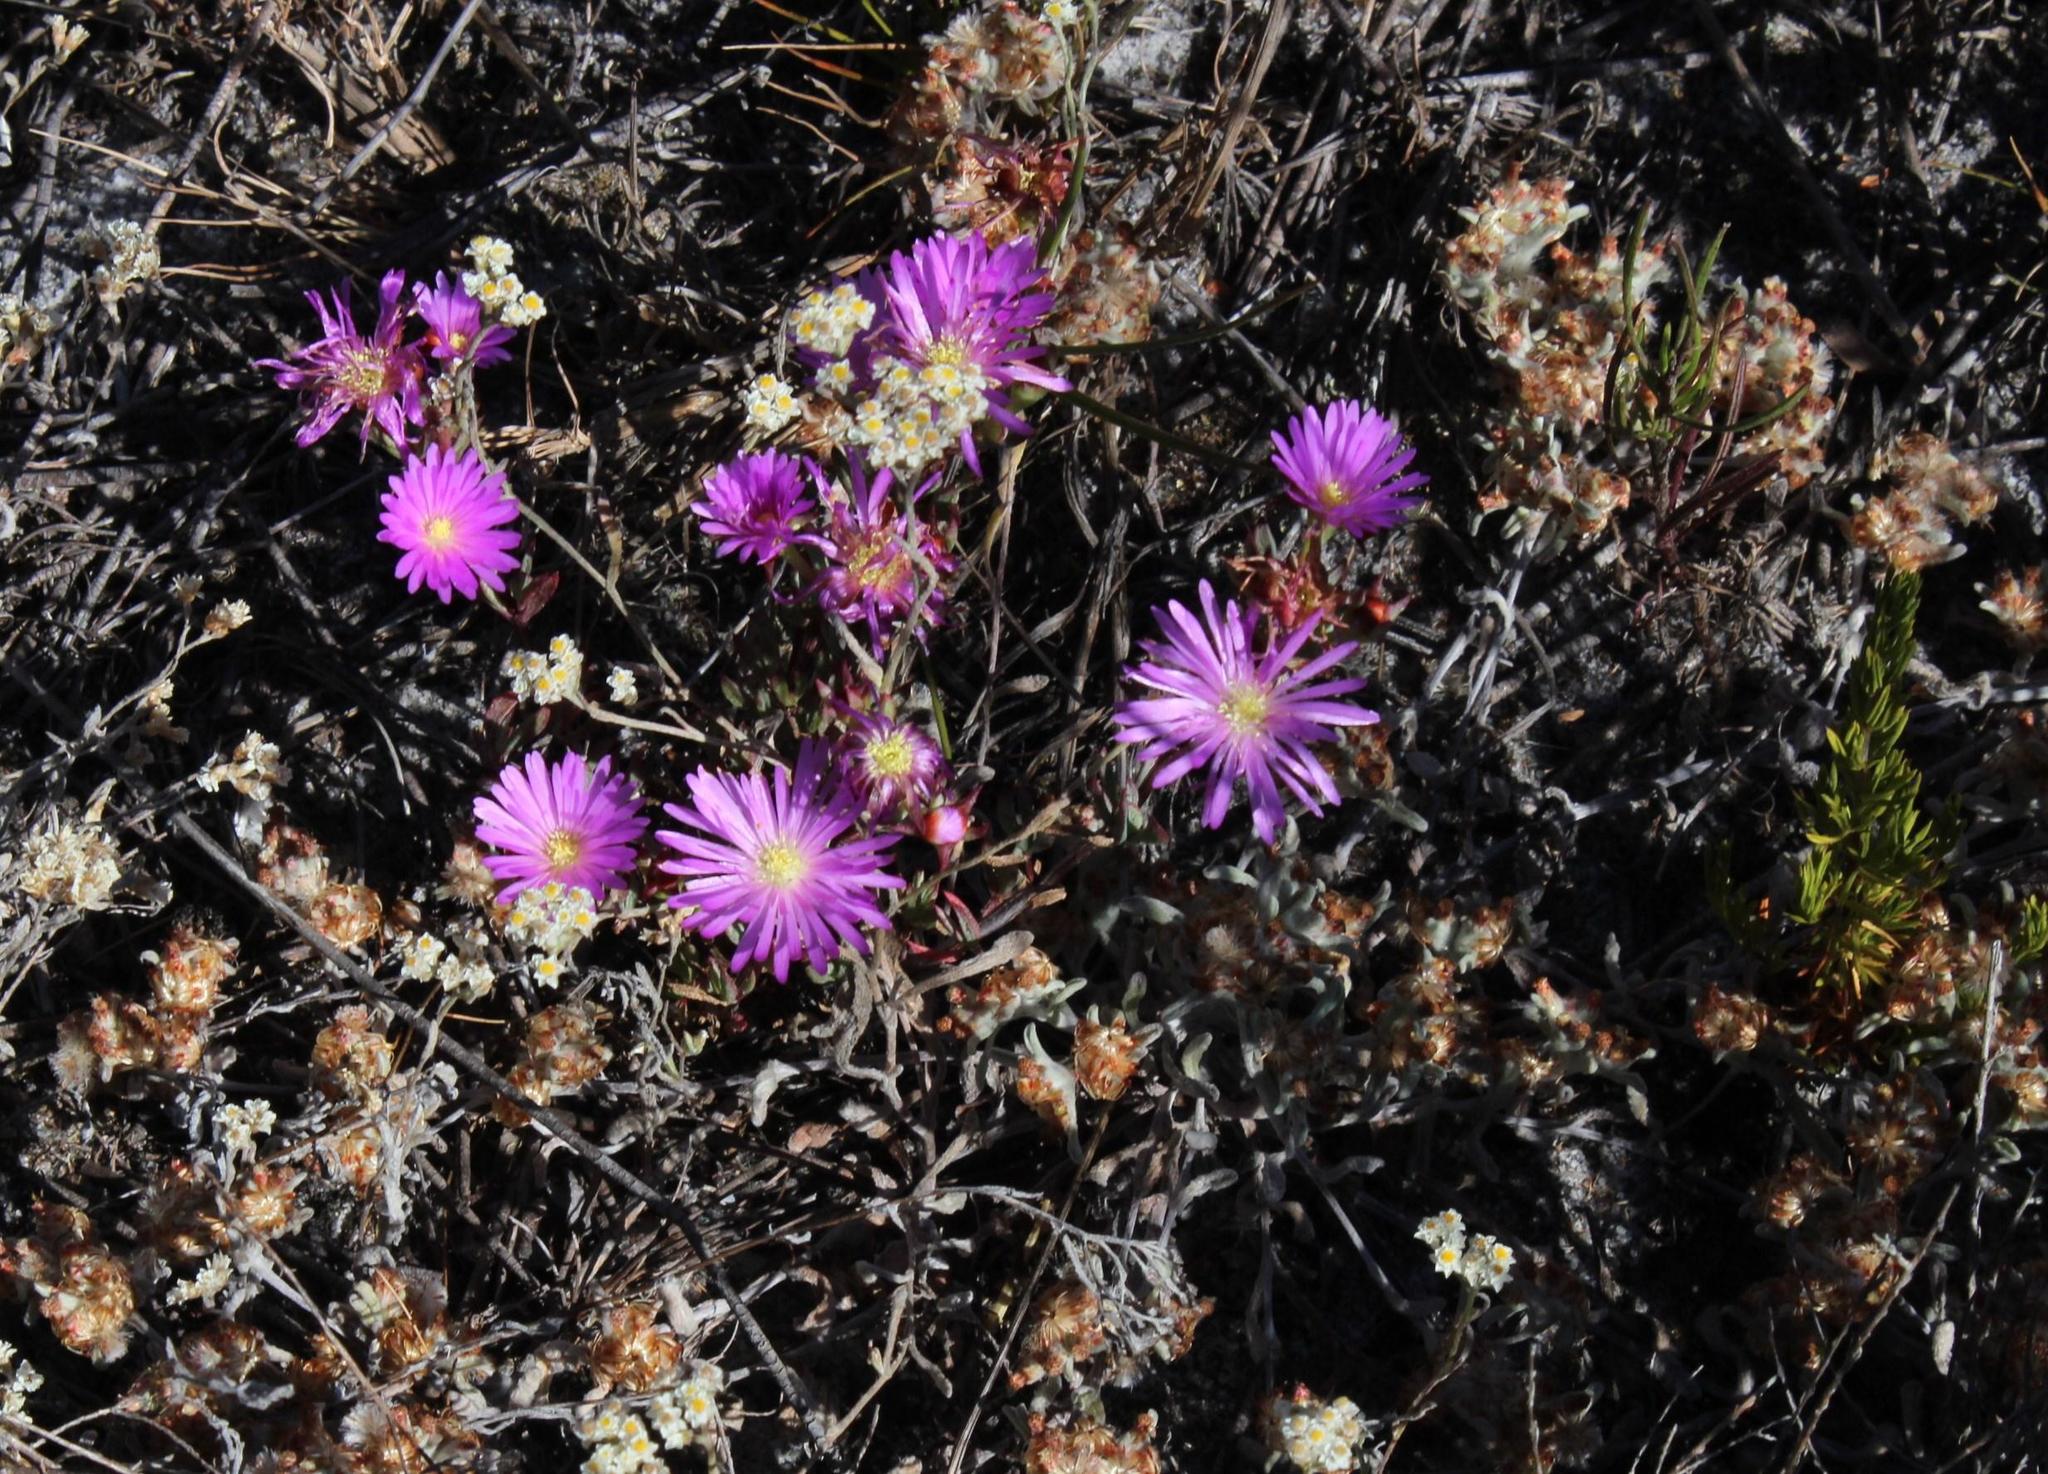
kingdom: Plantae
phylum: Tracheophyta
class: Magnoliopsida
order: Caryophyllales
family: Aizoaceae
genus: Lampranthus
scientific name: Lampranthus emarginatus
